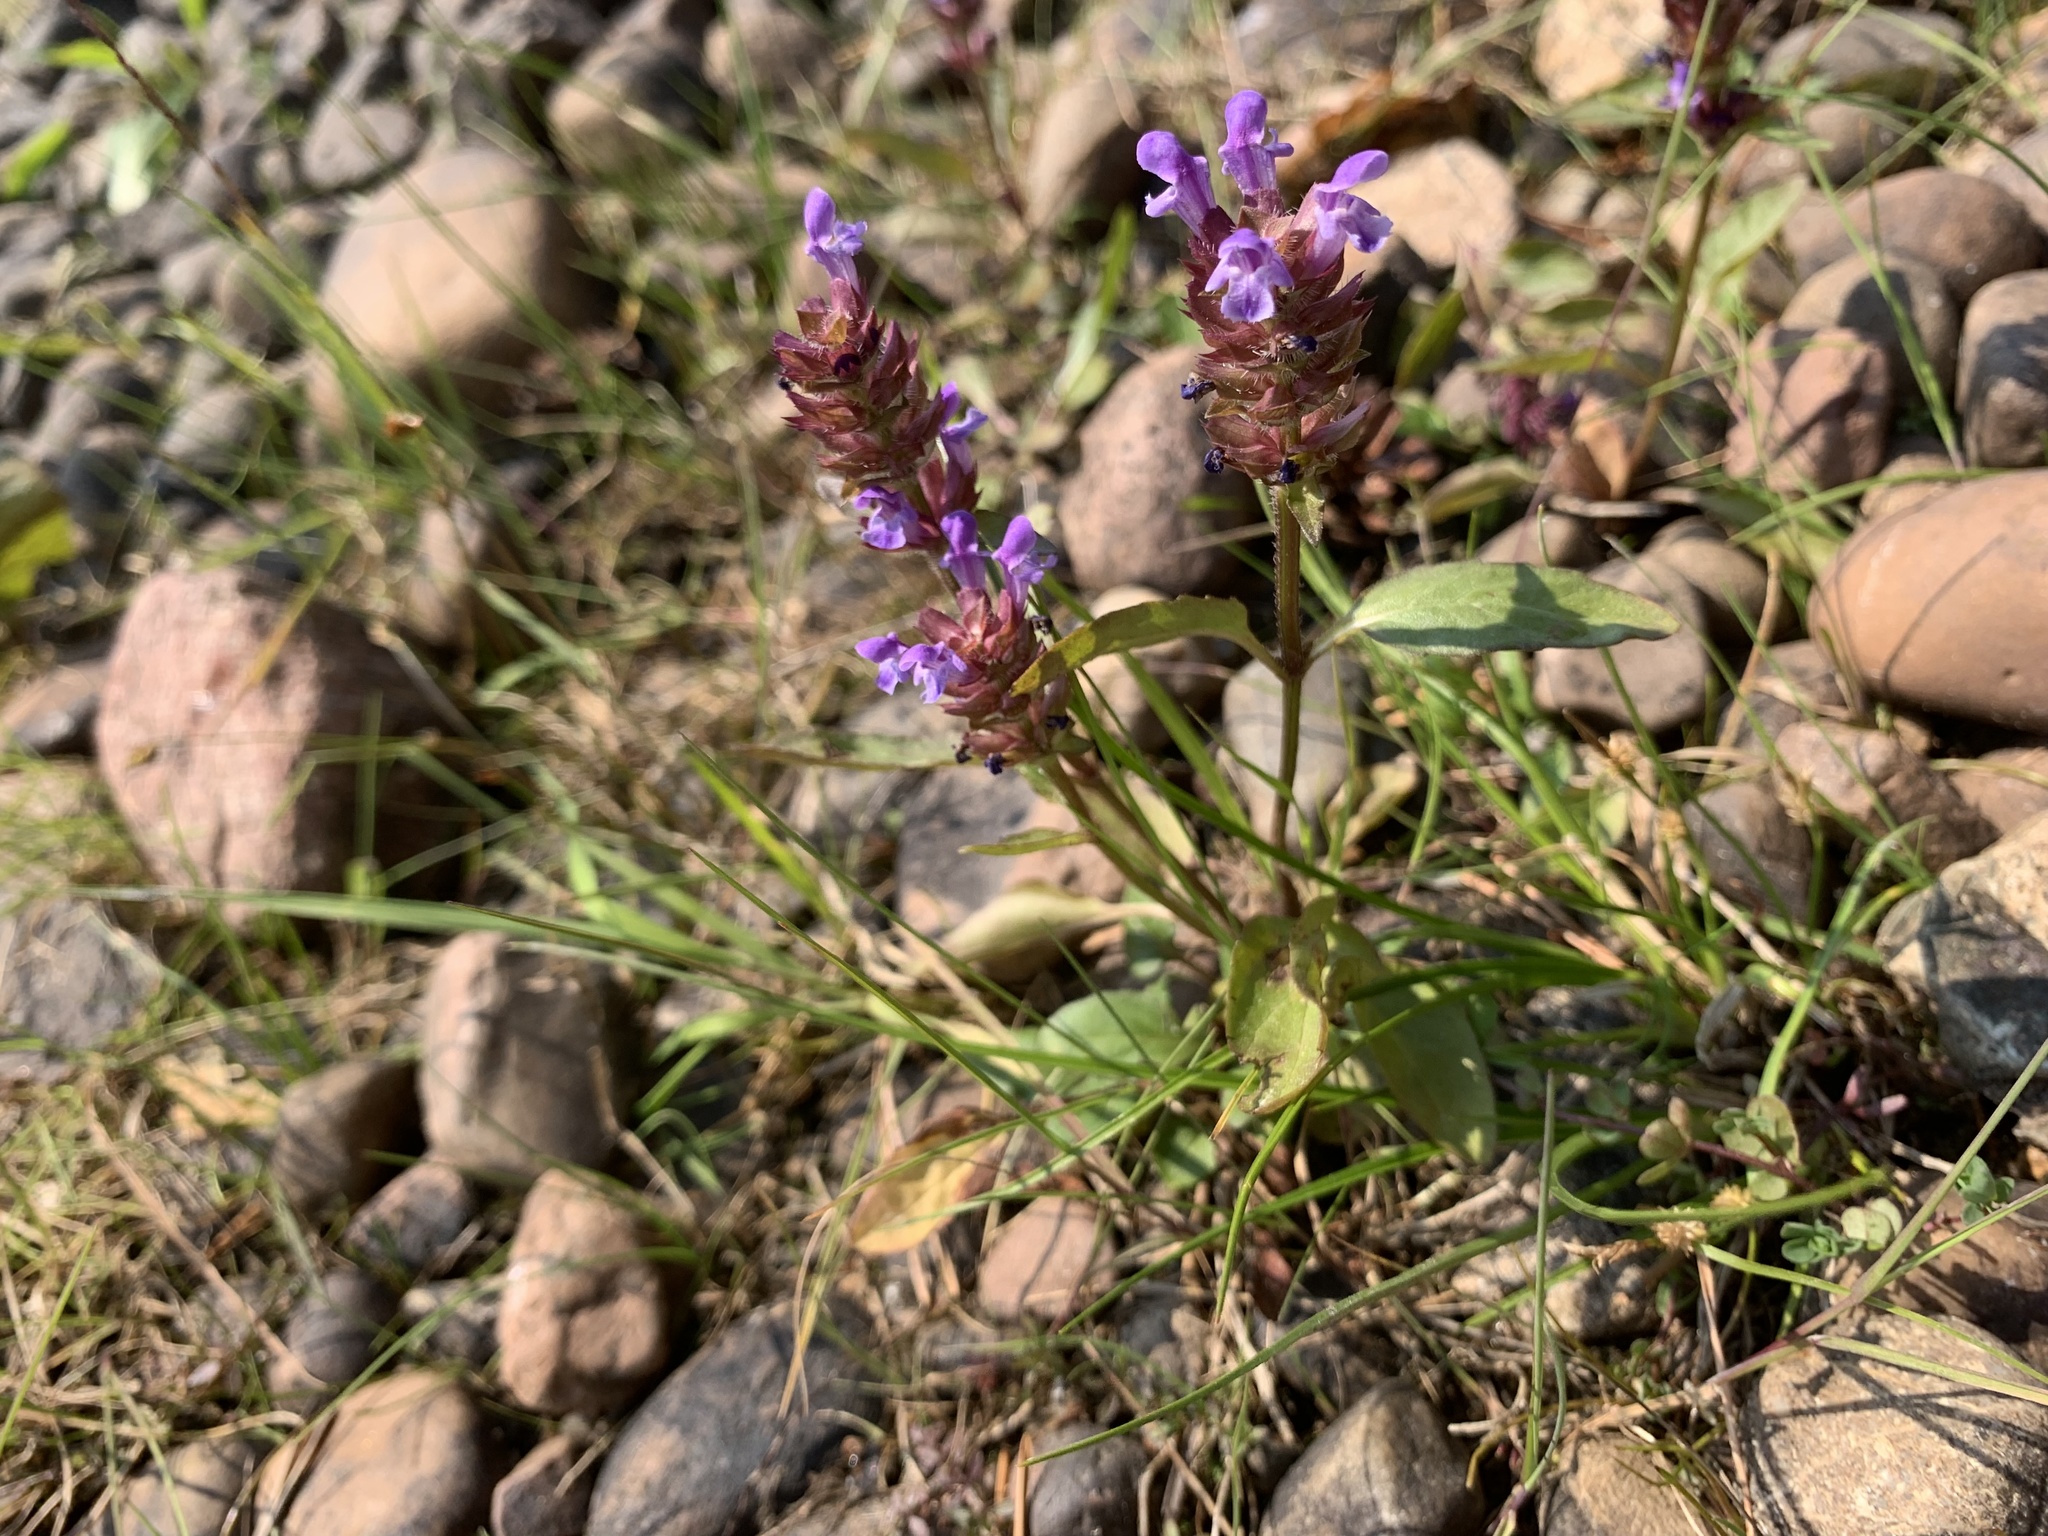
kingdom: Plantae
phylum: Tracheophyta
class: Magnoliopsida
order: Lamiales
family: Lamiaceae
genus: Prunella
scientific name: Prunella vulgaris
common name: Heal-all
